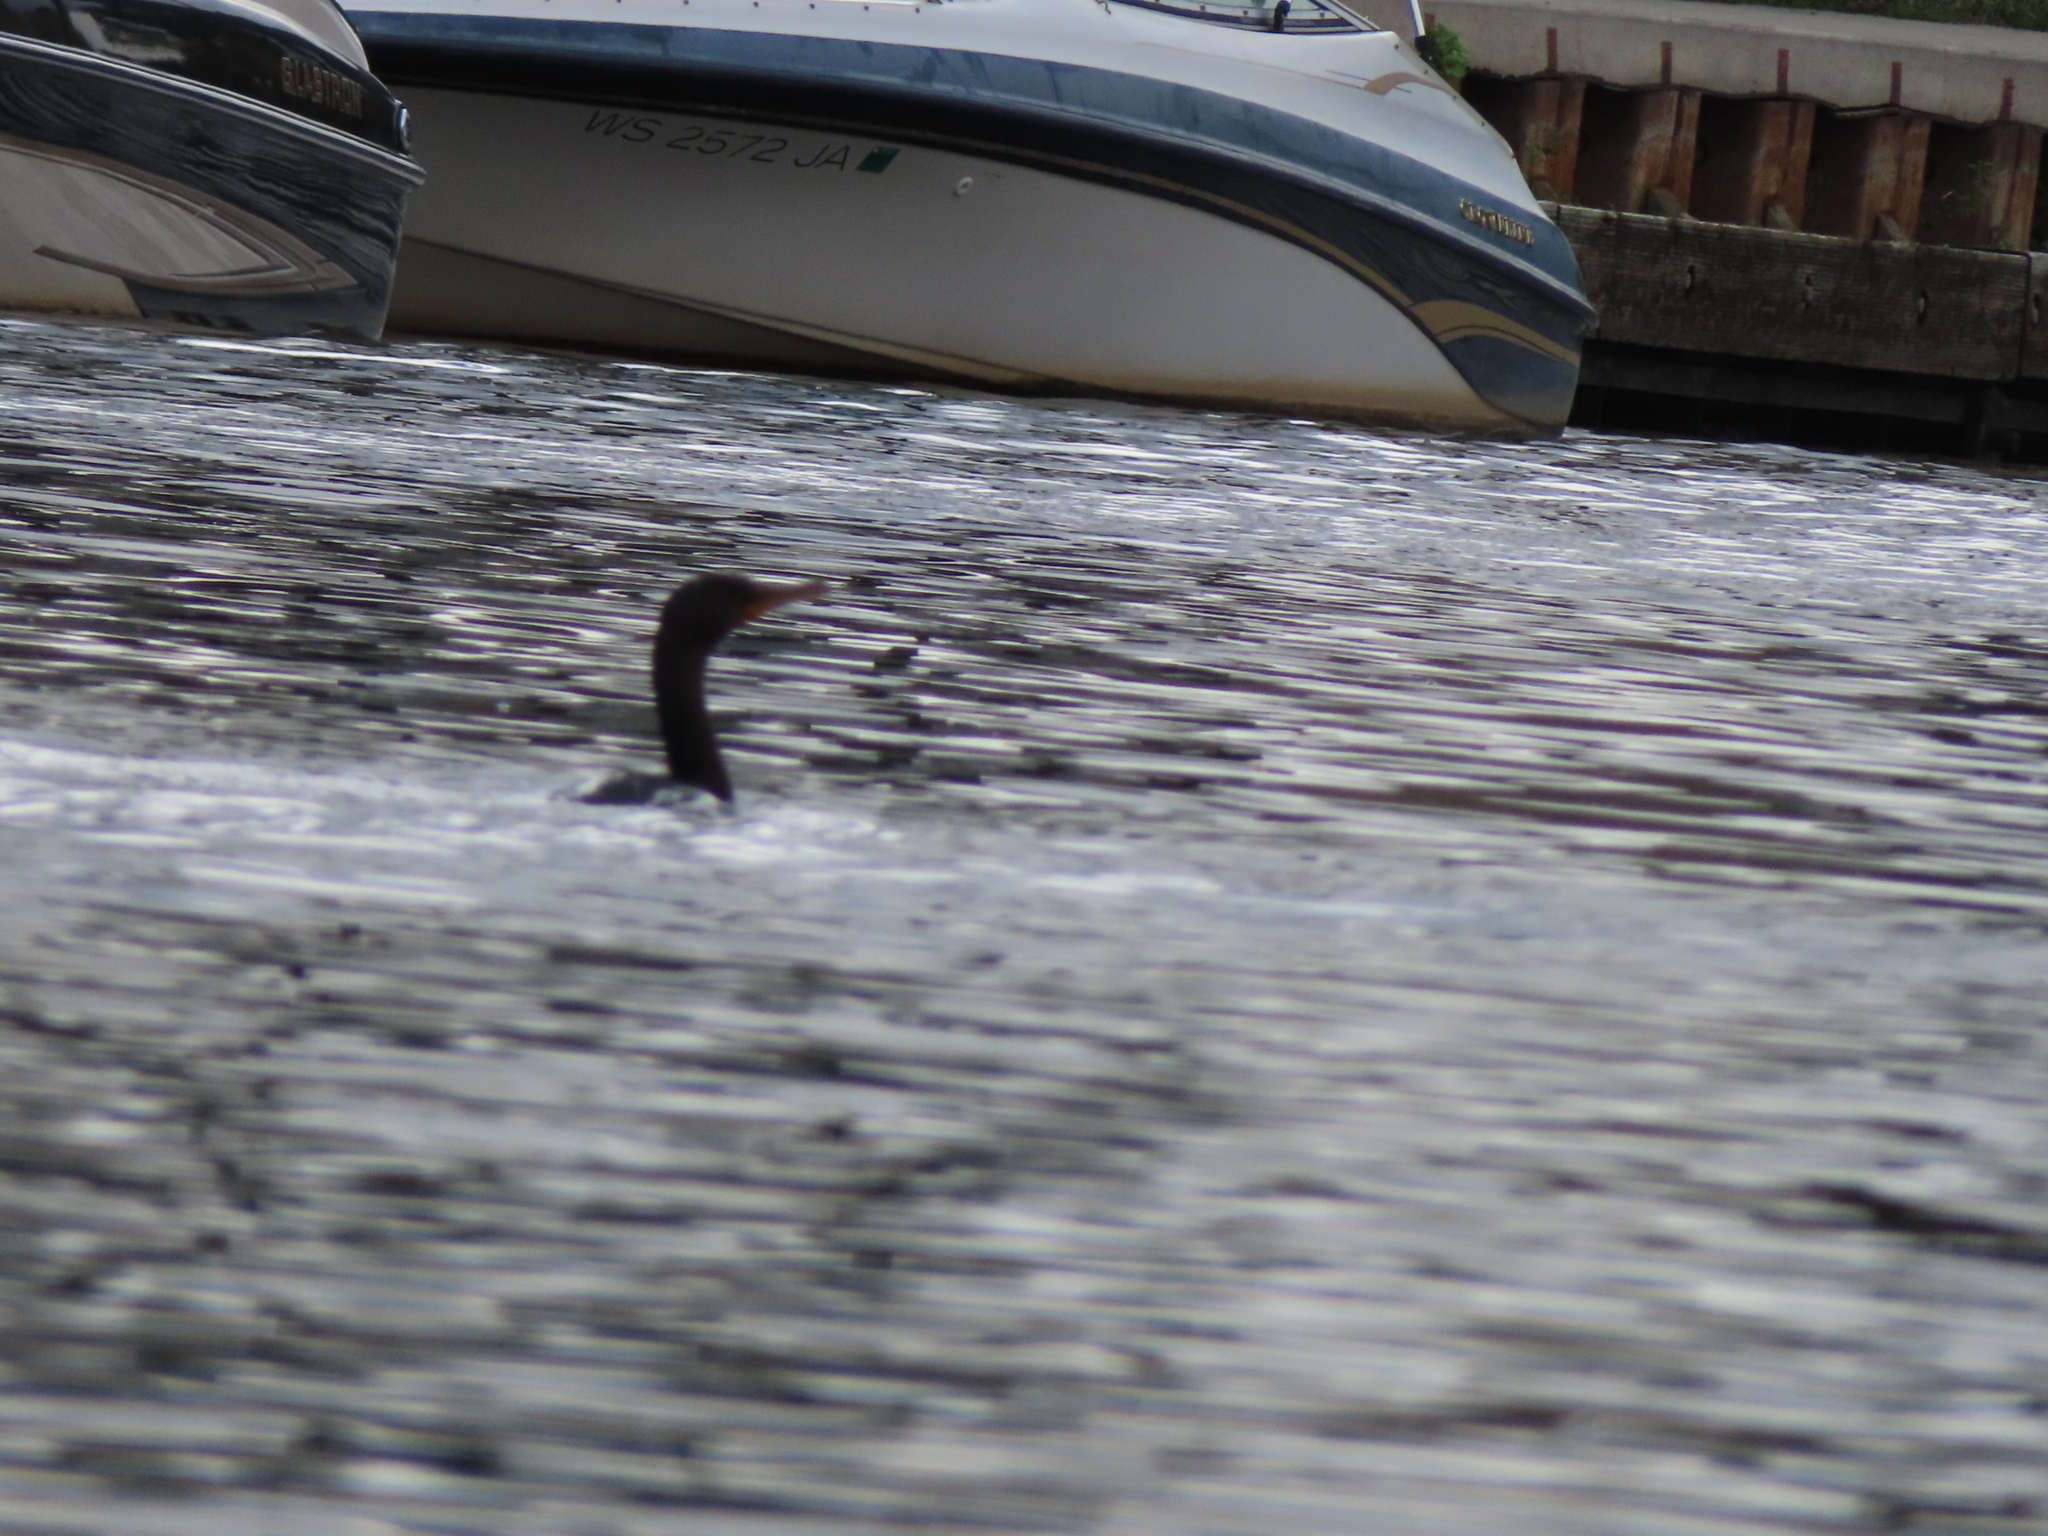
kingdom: Animalia
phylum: Chordata
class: Aves
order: Suliformes
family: Phalacrocoracidae
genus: Phalacrocorax
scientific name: Phalacrocorax auritus
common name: Double-crested cormorant
